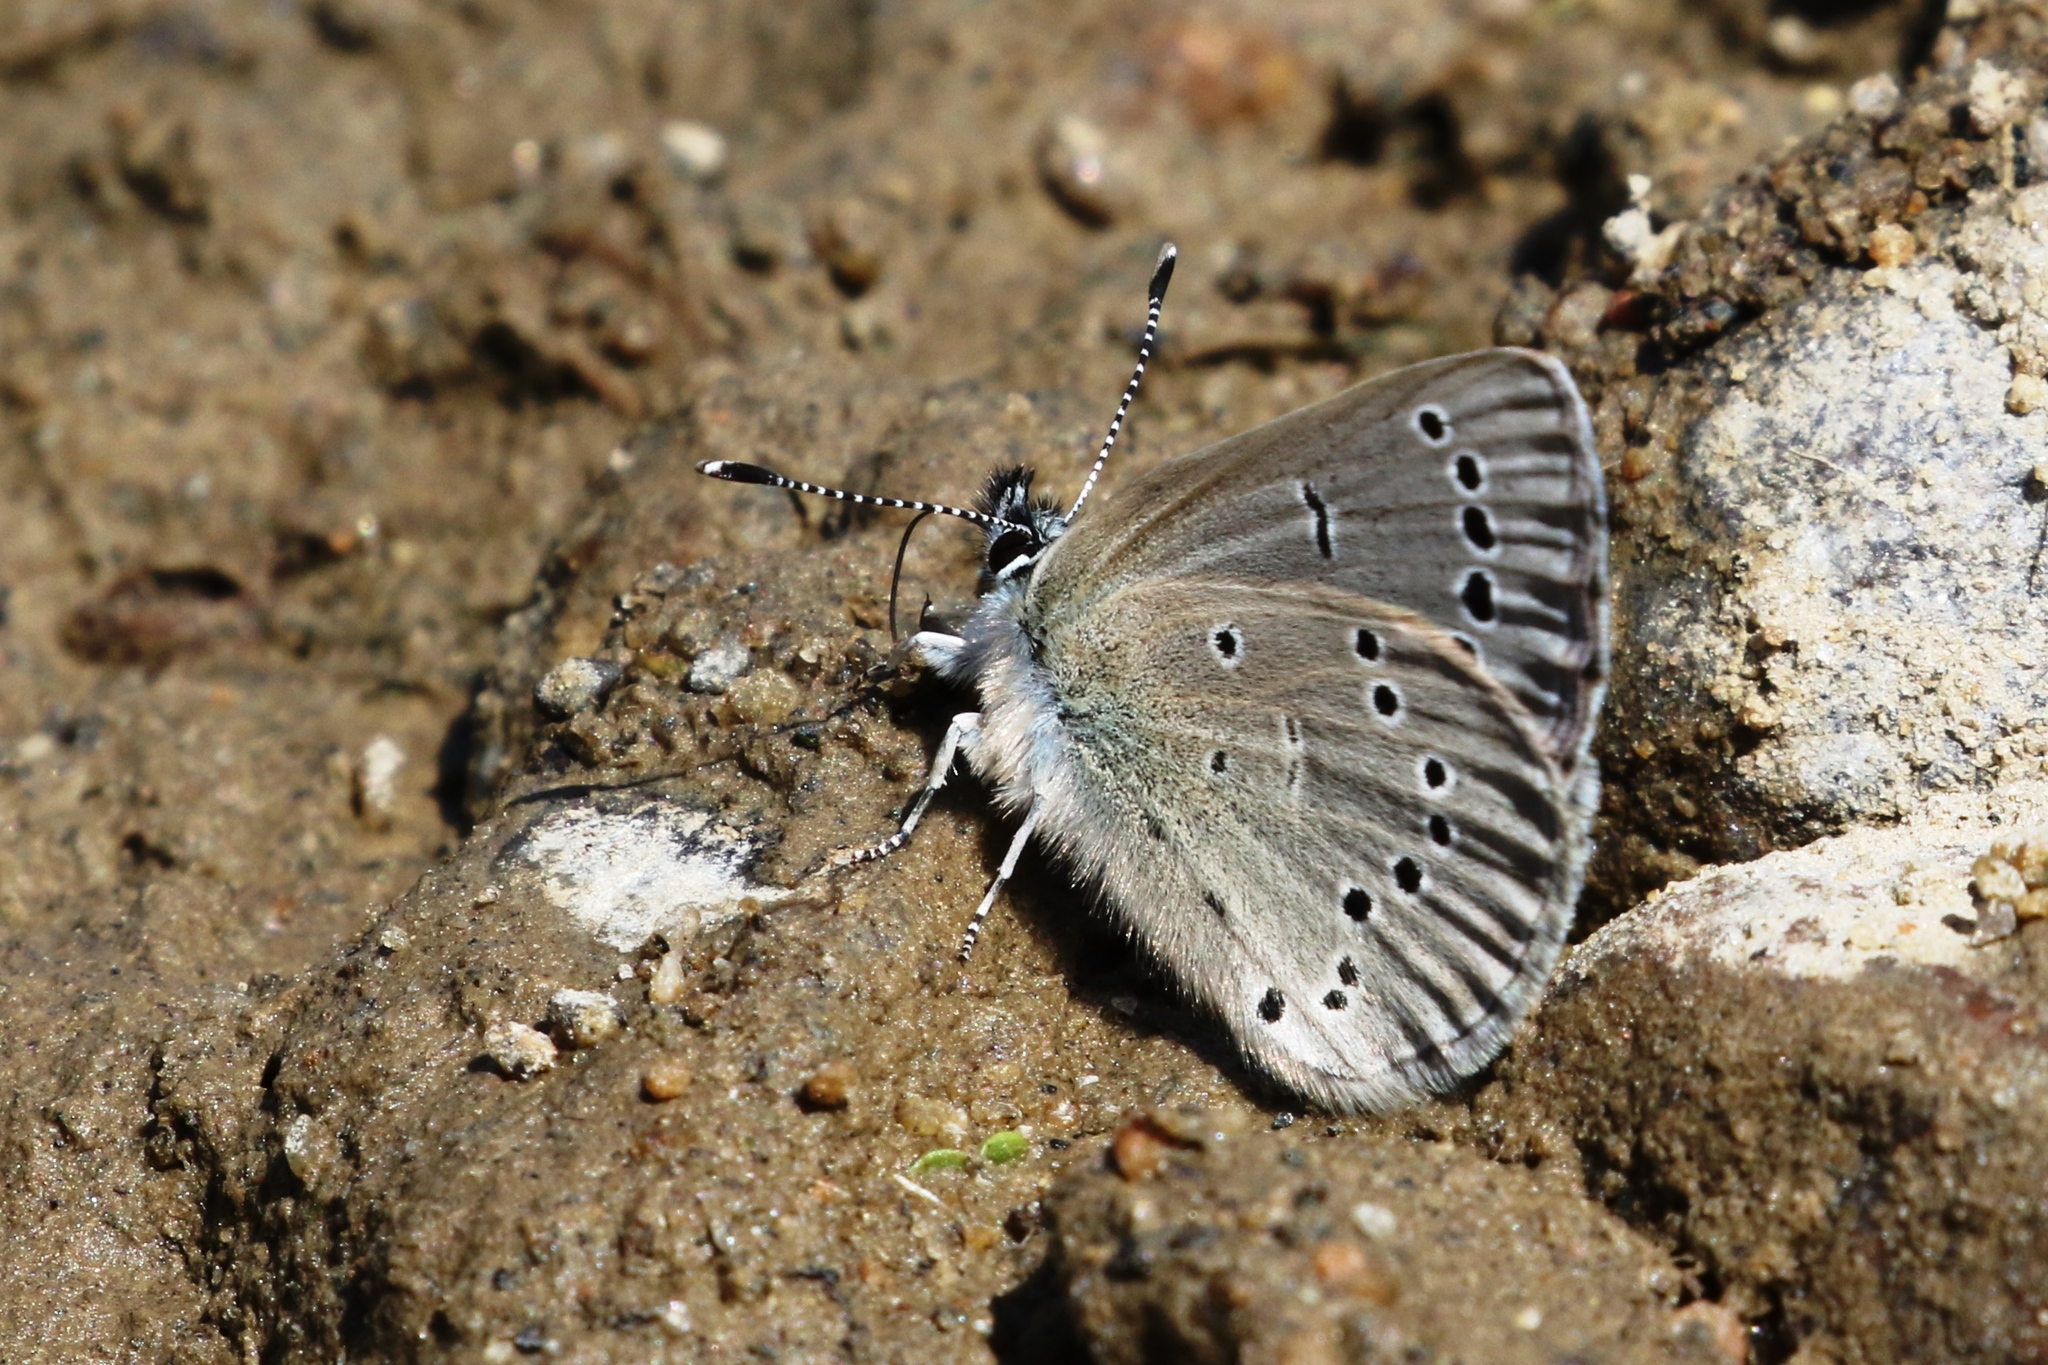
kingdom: Animalia
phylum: Arthropoda
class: Insecta
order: Lepidoptera
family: Lycaenidae
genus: Glaucopsyche
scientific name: Glaucopsyche lygdamus
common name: Silvery blue
